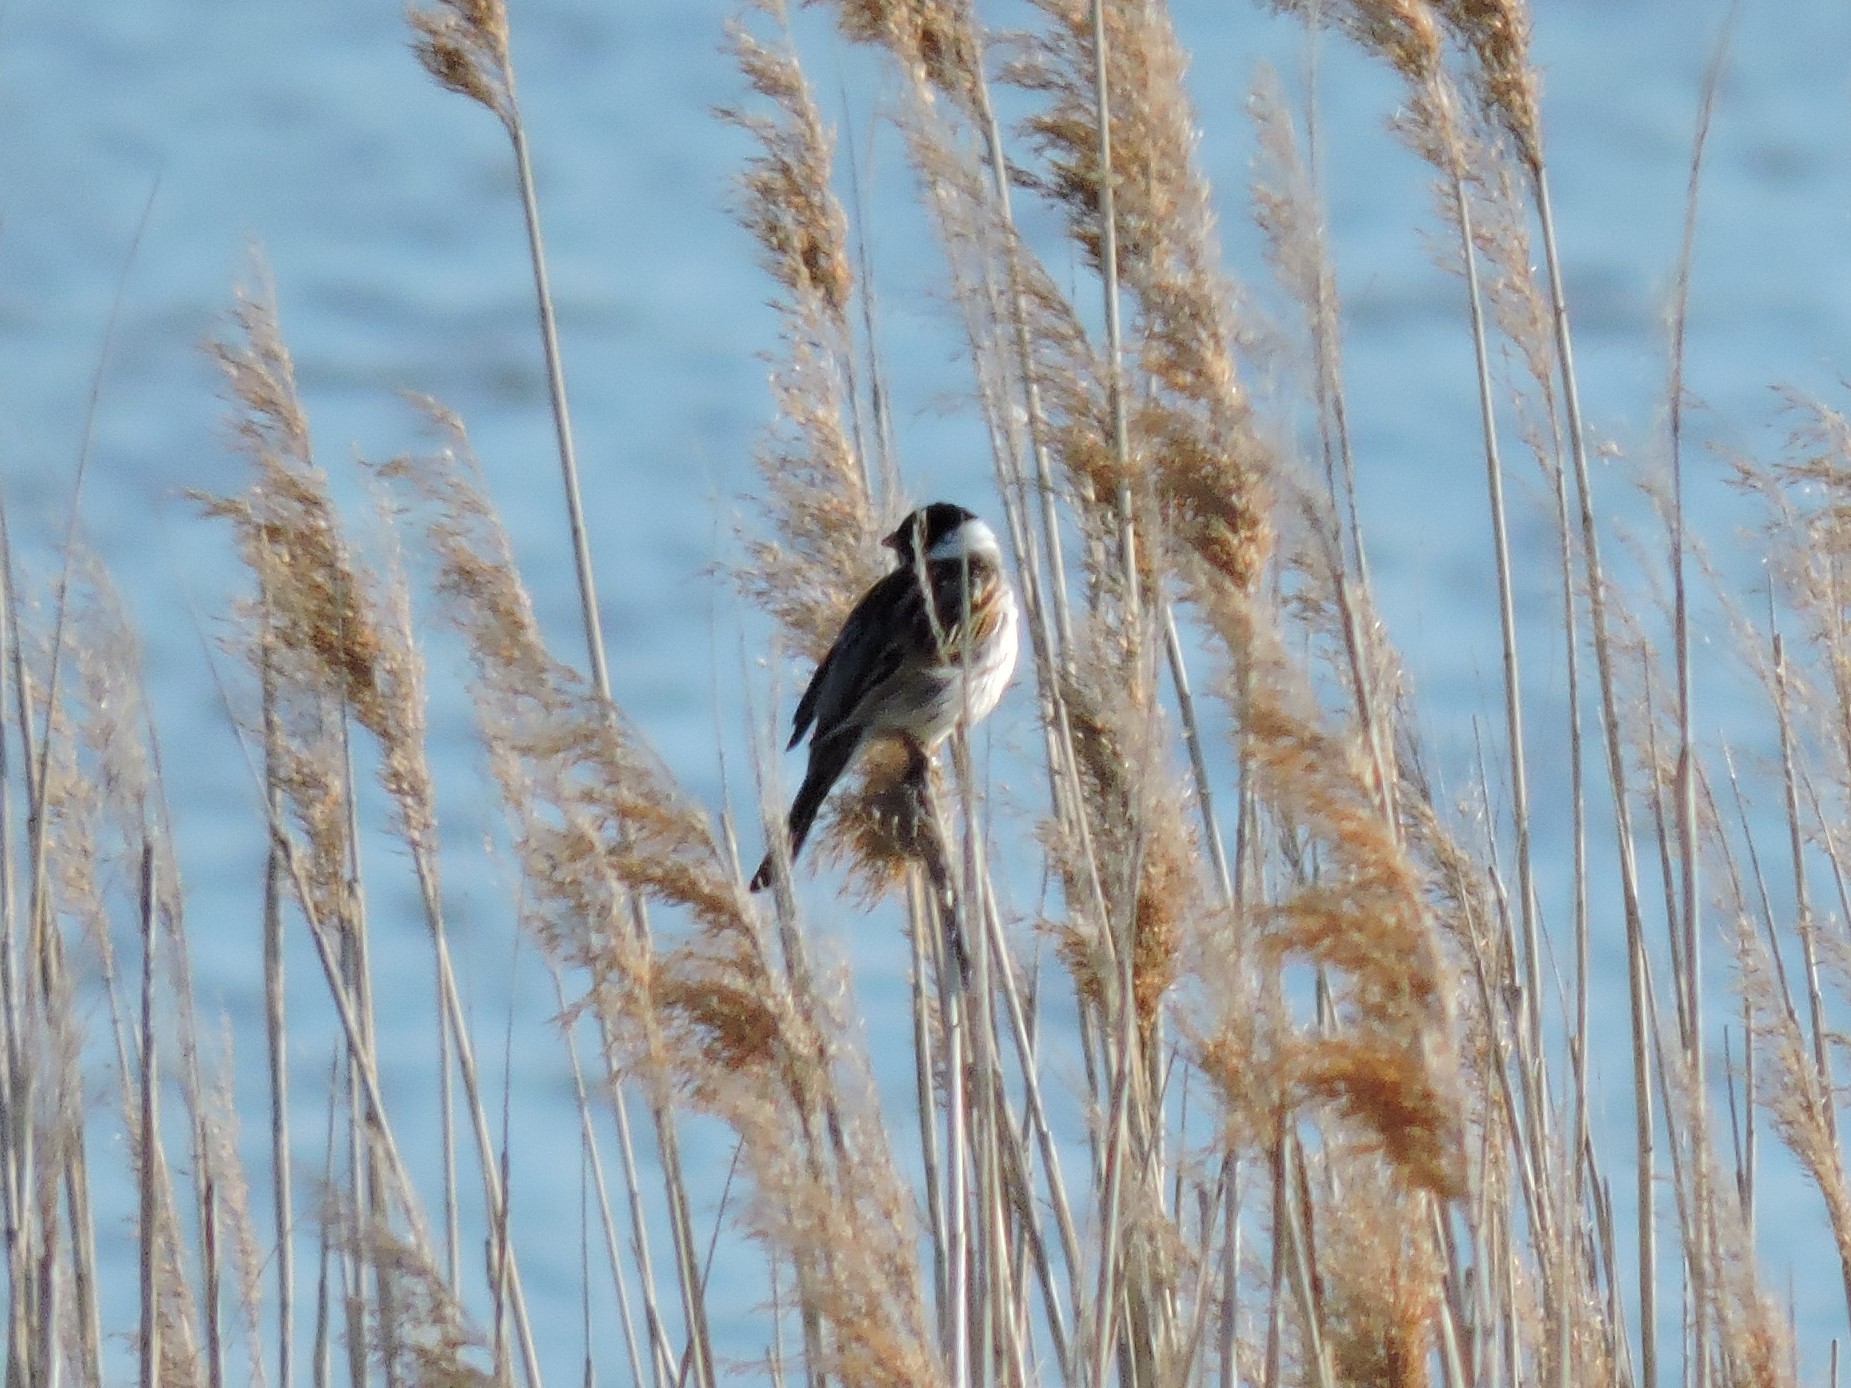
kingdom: Animalia
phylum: Chordata
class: Aves
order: Passeriformes
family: Emberizidae
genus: Emberiza
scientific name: Emberiza schoeniclus
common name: Reed bunting
